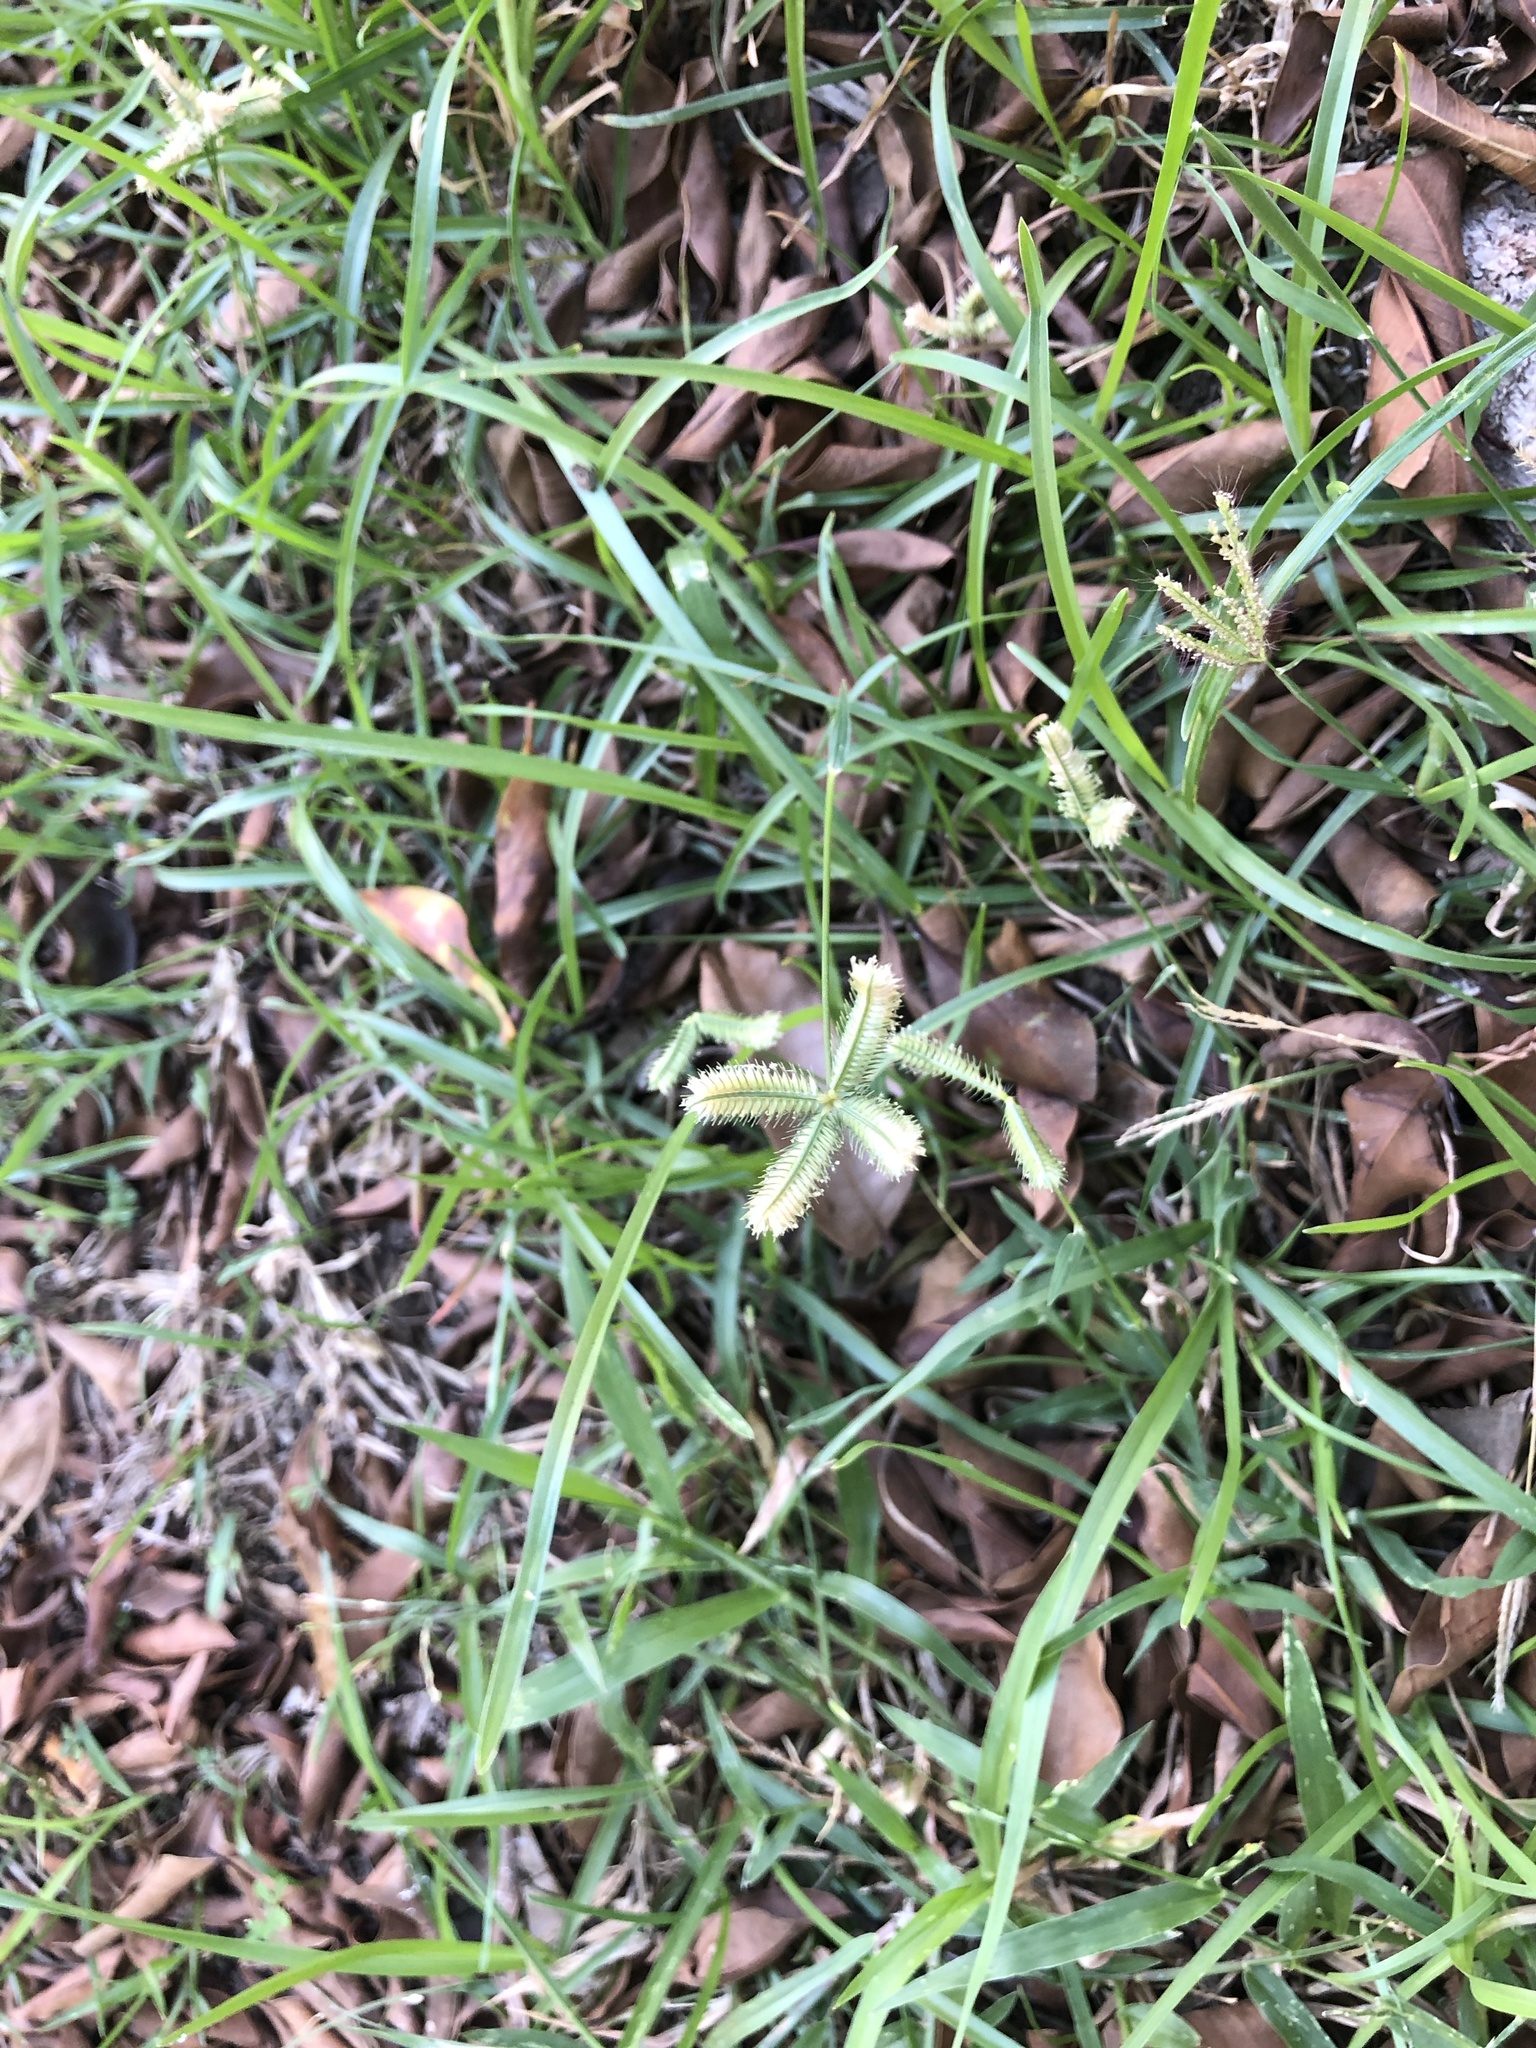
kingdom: Plantae
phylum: Tracheophyta
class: Liliopsida
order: Poales
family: Poaceae
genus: Dactyloctenium
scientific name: Dactyloctenium aegyptium
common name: Egyptian grass
